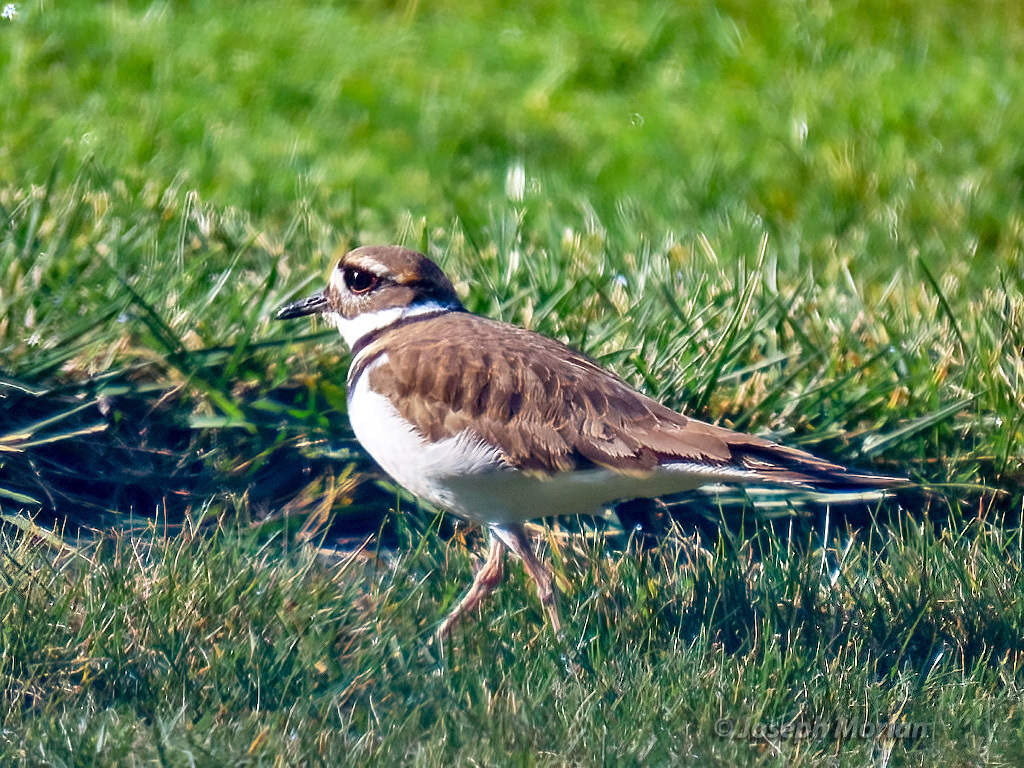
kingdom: Animalia
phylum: Chordata
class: Aves
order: Charadriiformes
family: Charadriidae
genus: Charadrius
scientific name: Charadrius vociferus
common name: Killdeer
